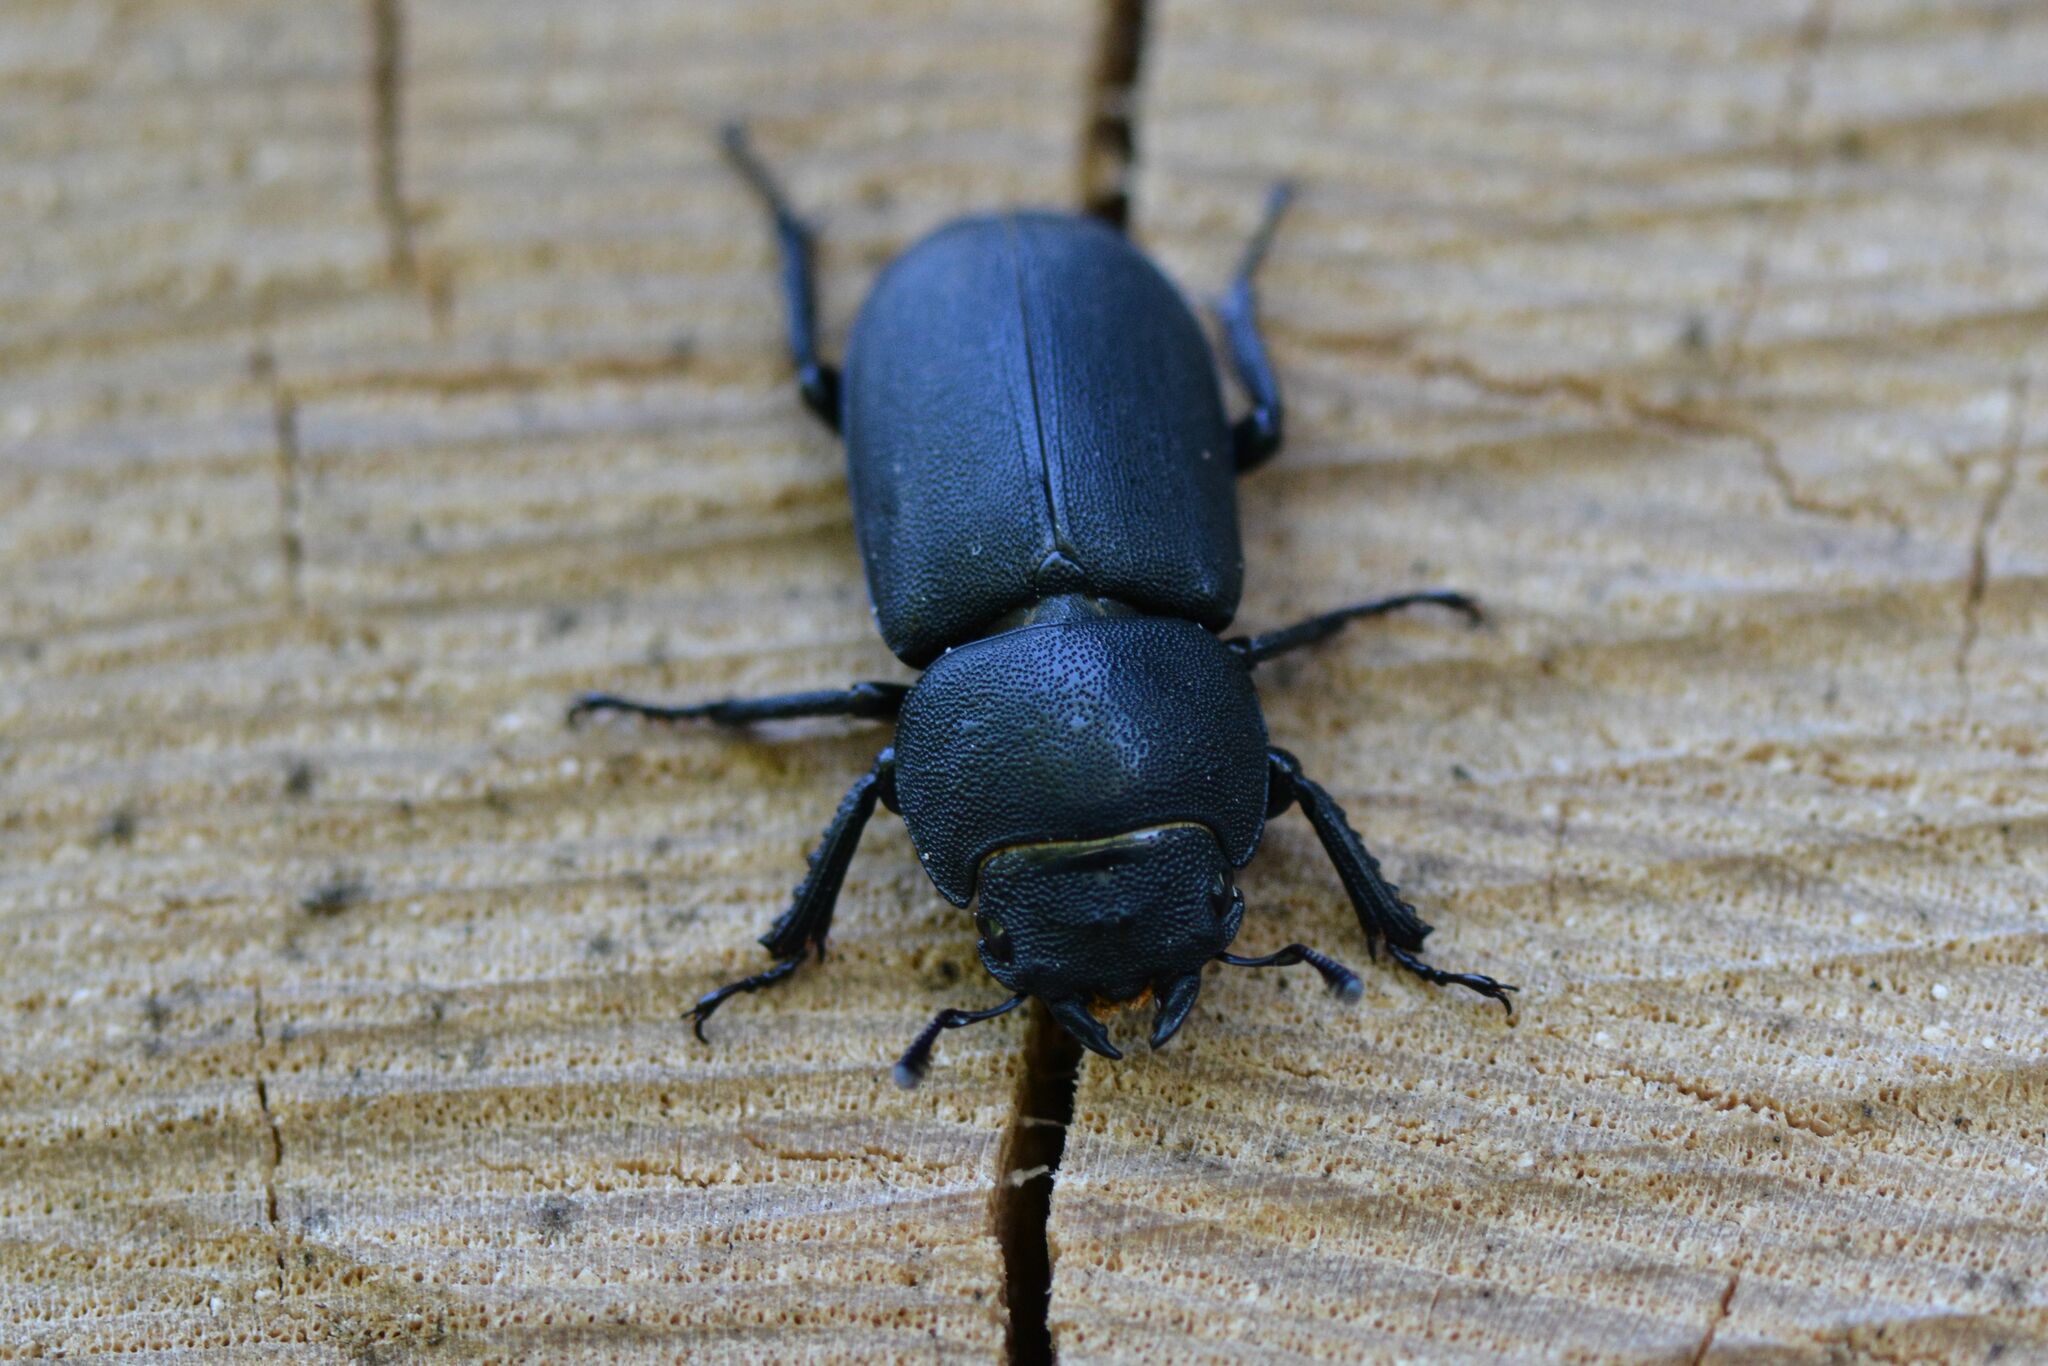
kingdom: Animalia
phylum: Arthropoda
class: Insecta
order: Coleoptera
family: Lucanidae
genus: Dorcus
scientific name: Dorcus parallelipipedus
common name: Lesser stag beetle
